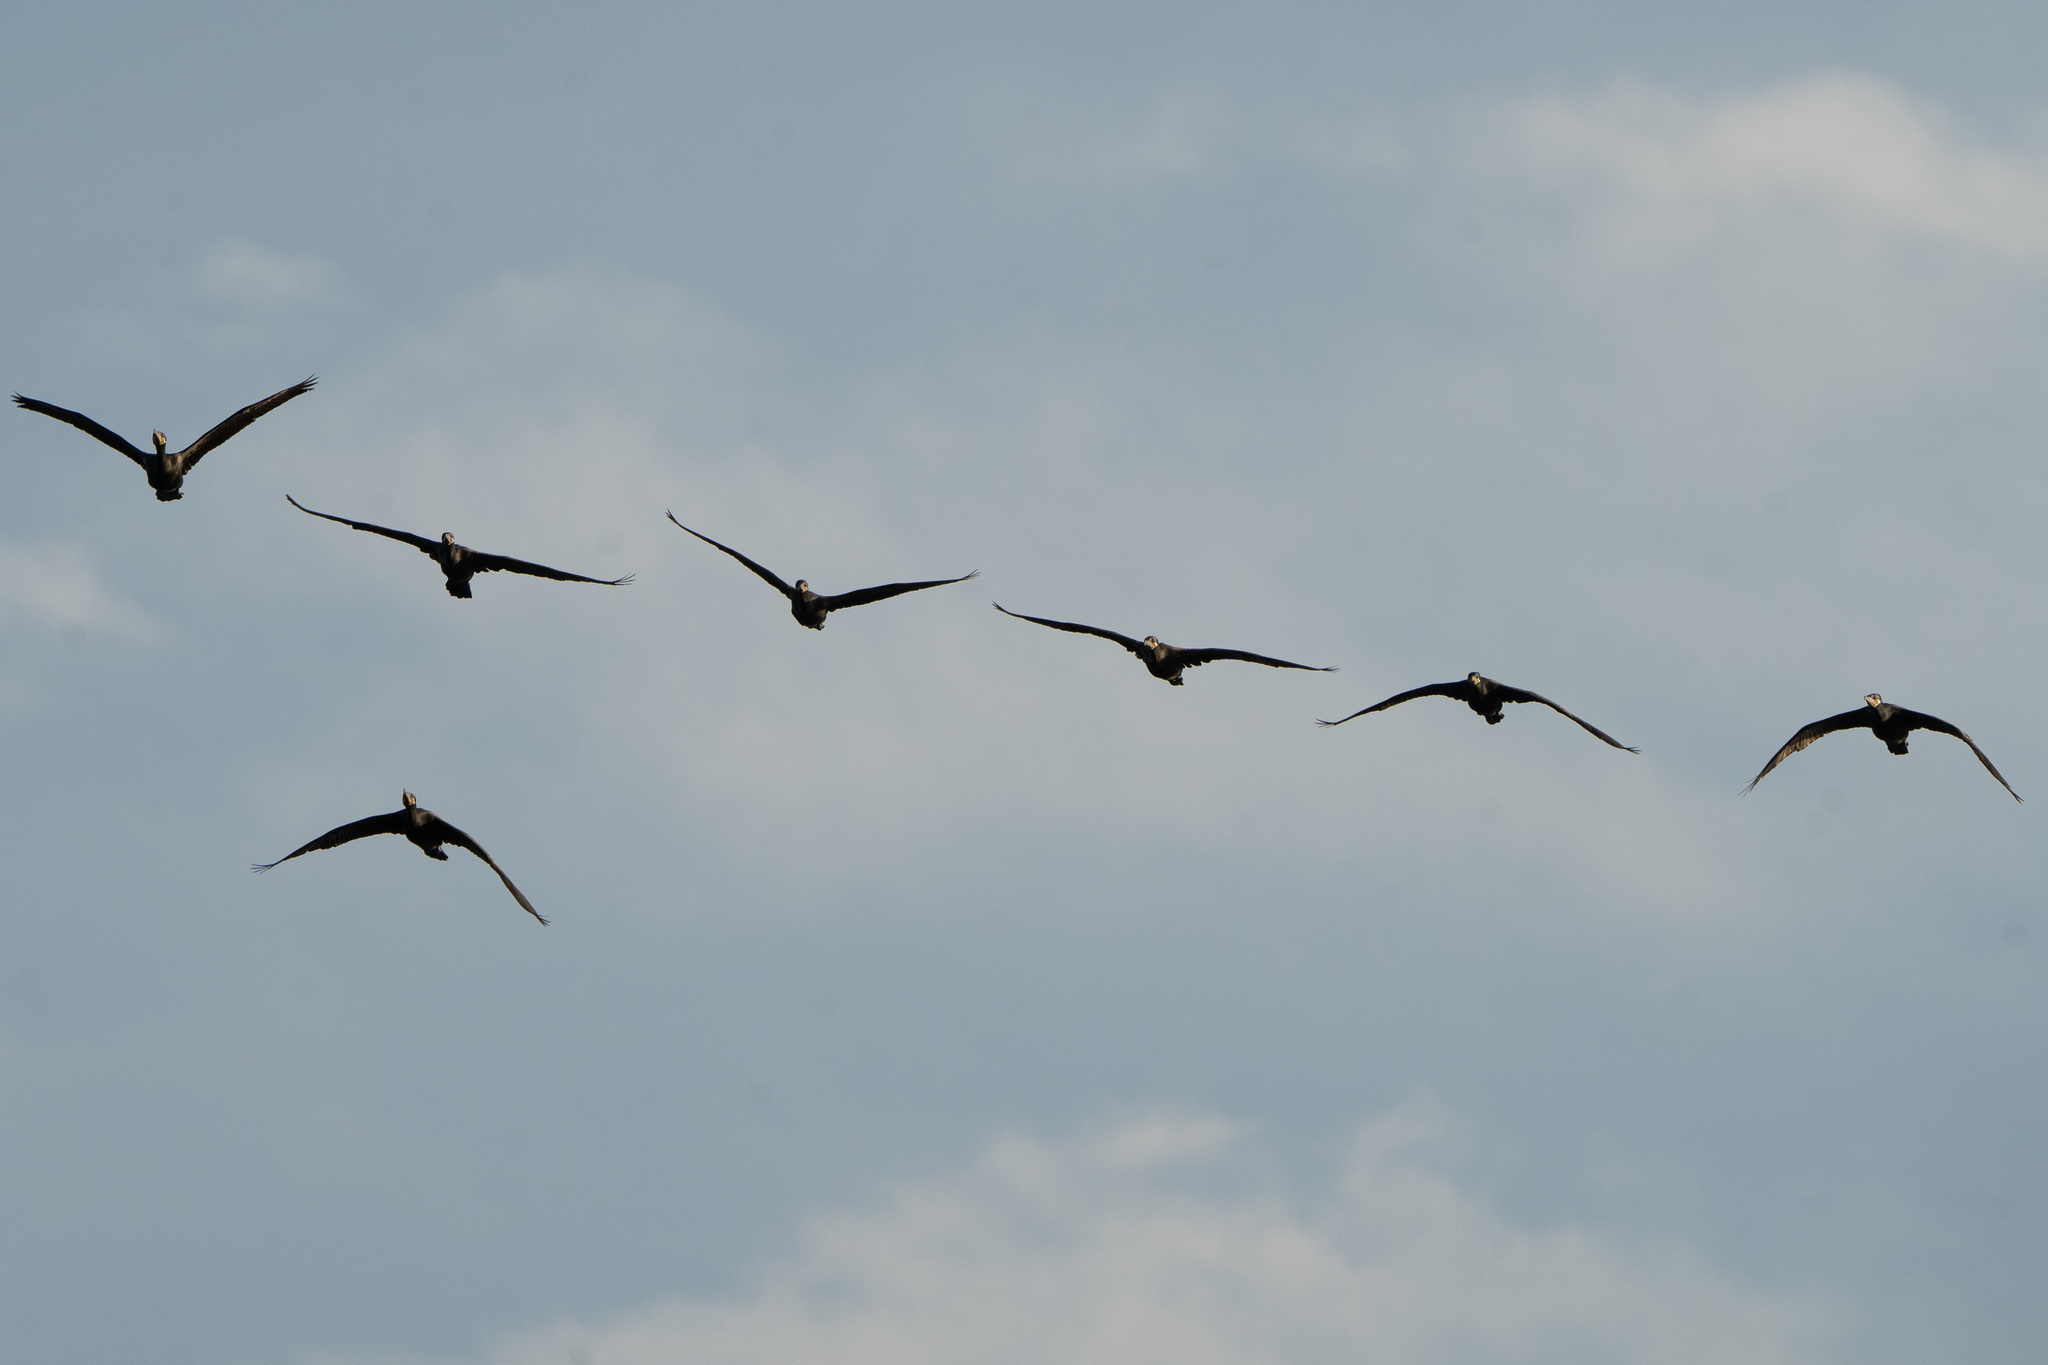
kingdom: Animalia
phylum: Chordata
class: Aves
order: Suliformes
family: Phalacrocoracidae
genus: Phalacrocorax
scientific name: Phalacrocorax brasilianus
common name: Neotropic cormorant
